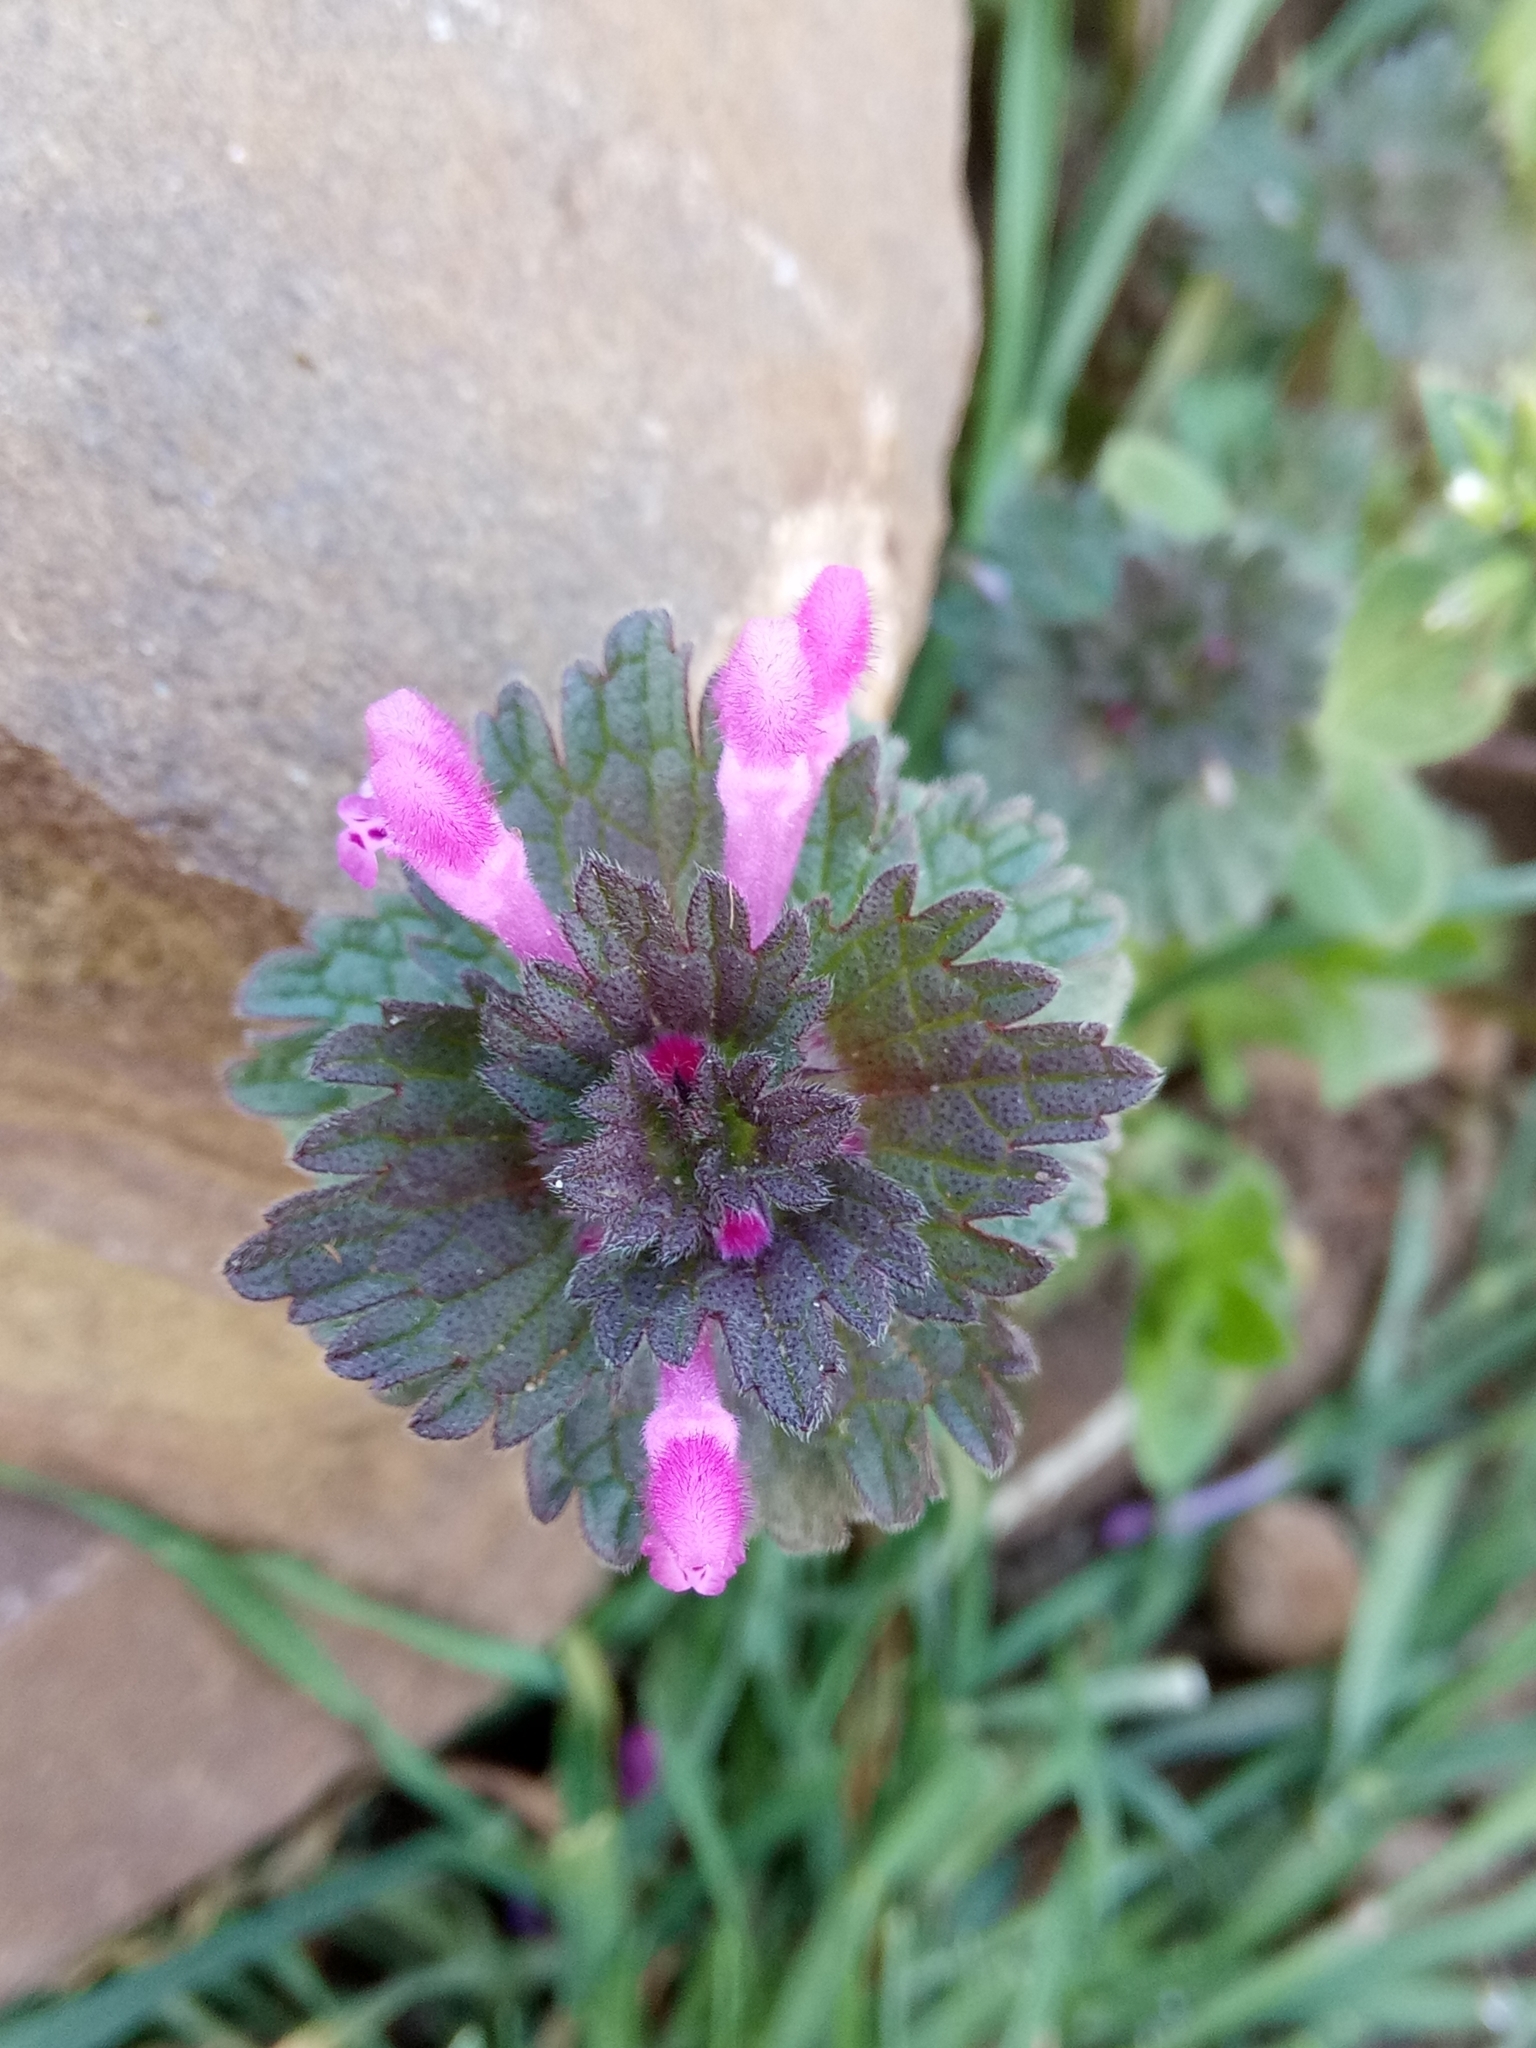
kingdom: Plantae
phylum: Tracheophyta
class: Magnoliopsida
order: Lamiales
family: Lamiaceae
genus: Lamium
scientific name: Lamium amplexicaule
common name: Henbit dead-nettle
